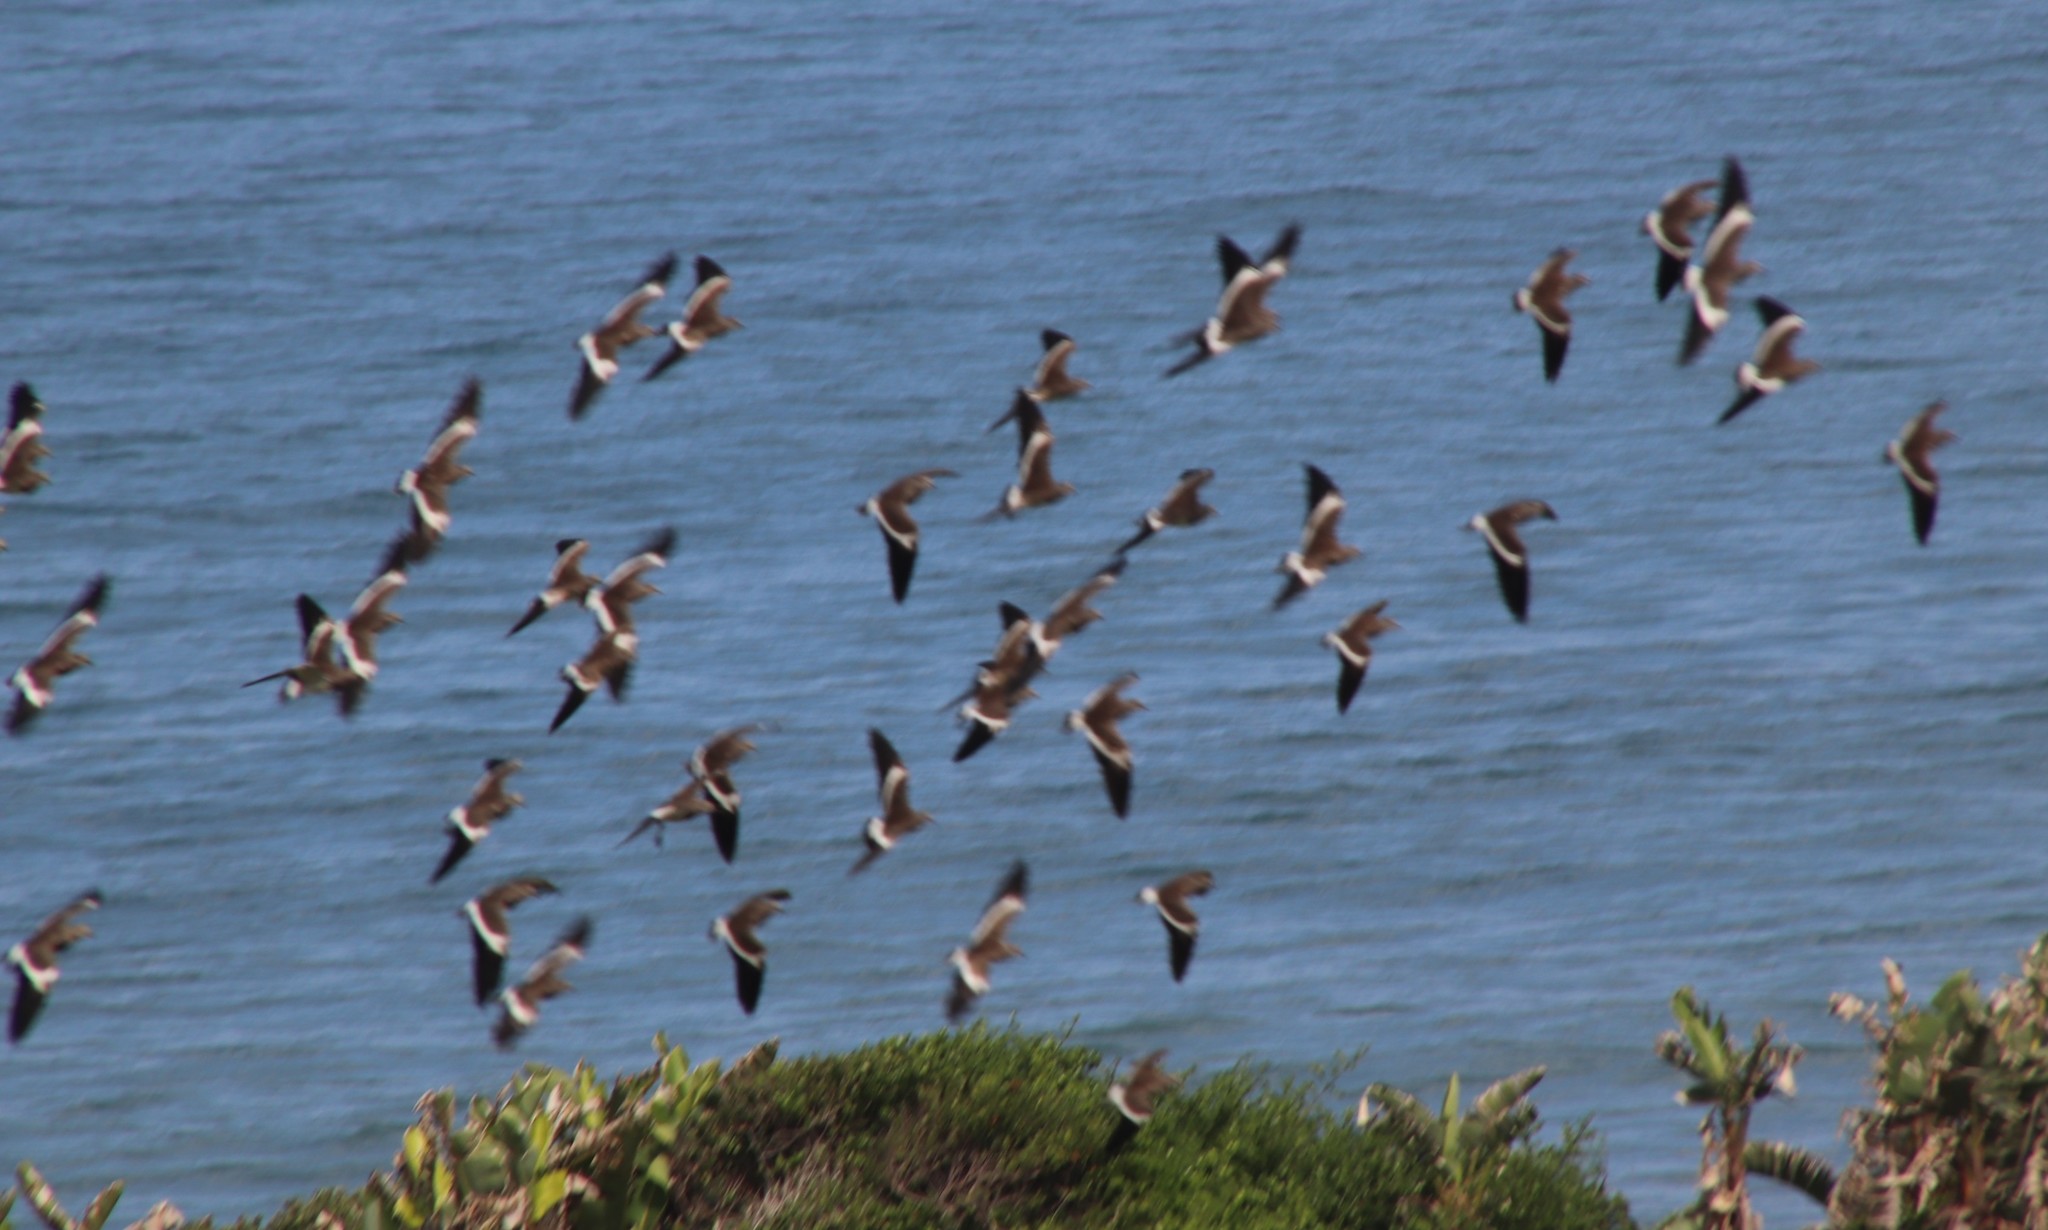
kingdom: Animalia
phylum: Chordata
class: Aves
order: Charadriiformes
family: Charadriidae
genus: Vanellus
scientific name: Vanellus melanopterus
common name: Black-winged lapwing
